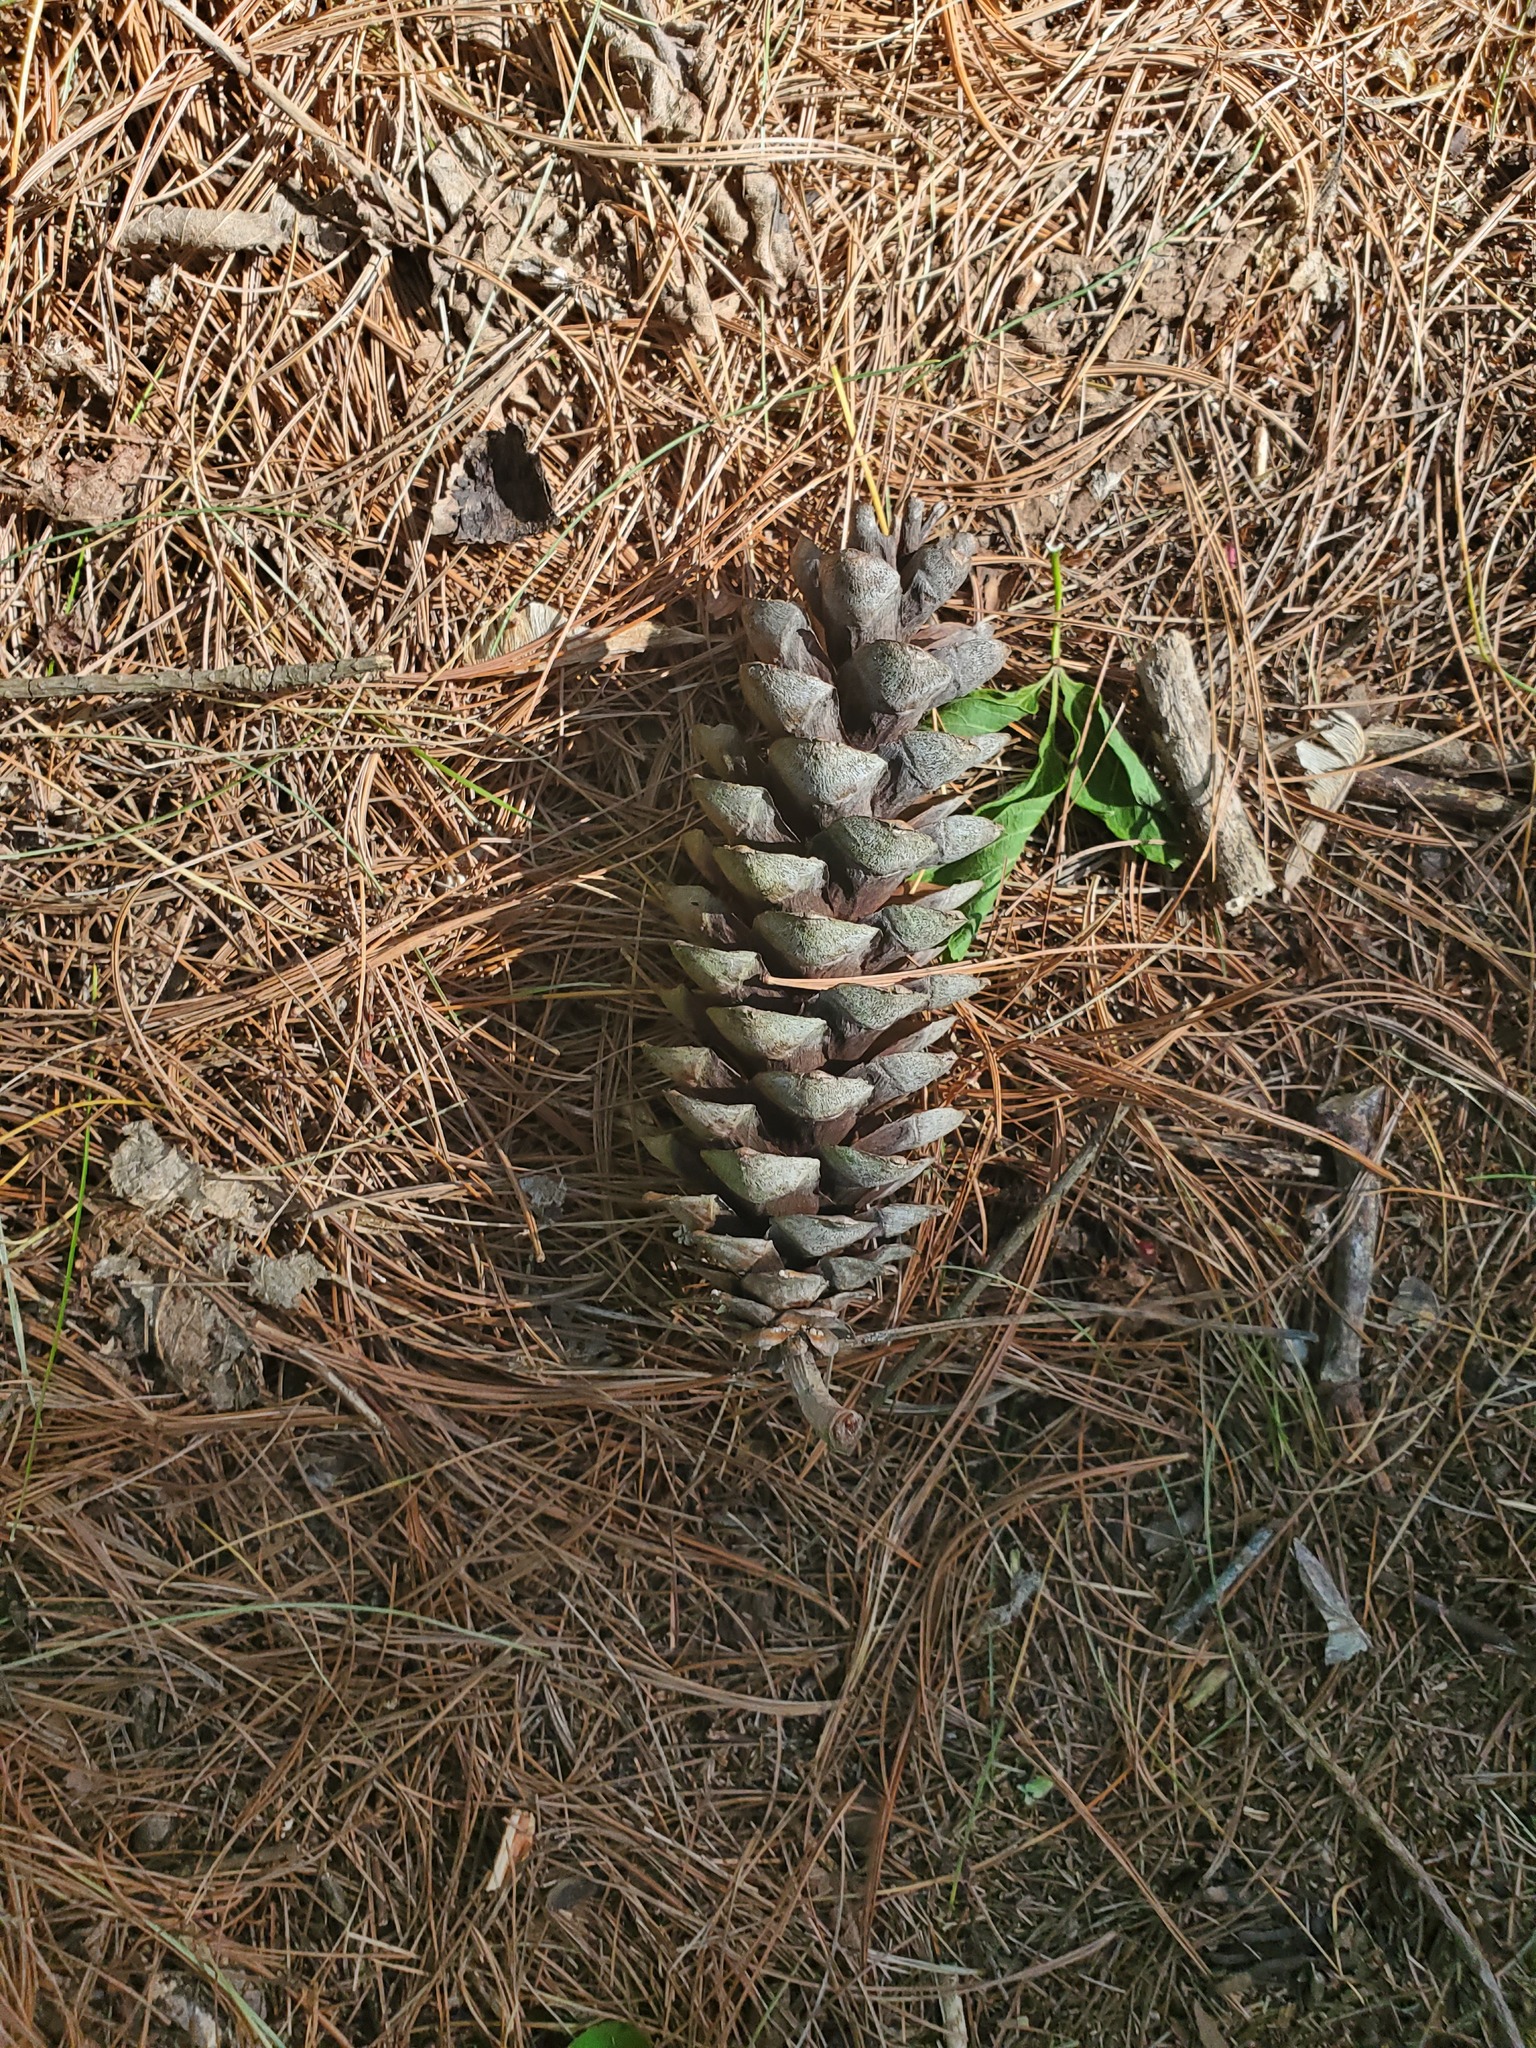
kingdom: Plantae
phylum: Tracheophyta
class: Pinopsida
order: Pinales
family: Pinaceae
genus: Pinus
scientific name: Pinus strobus
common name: Weymouth pine
